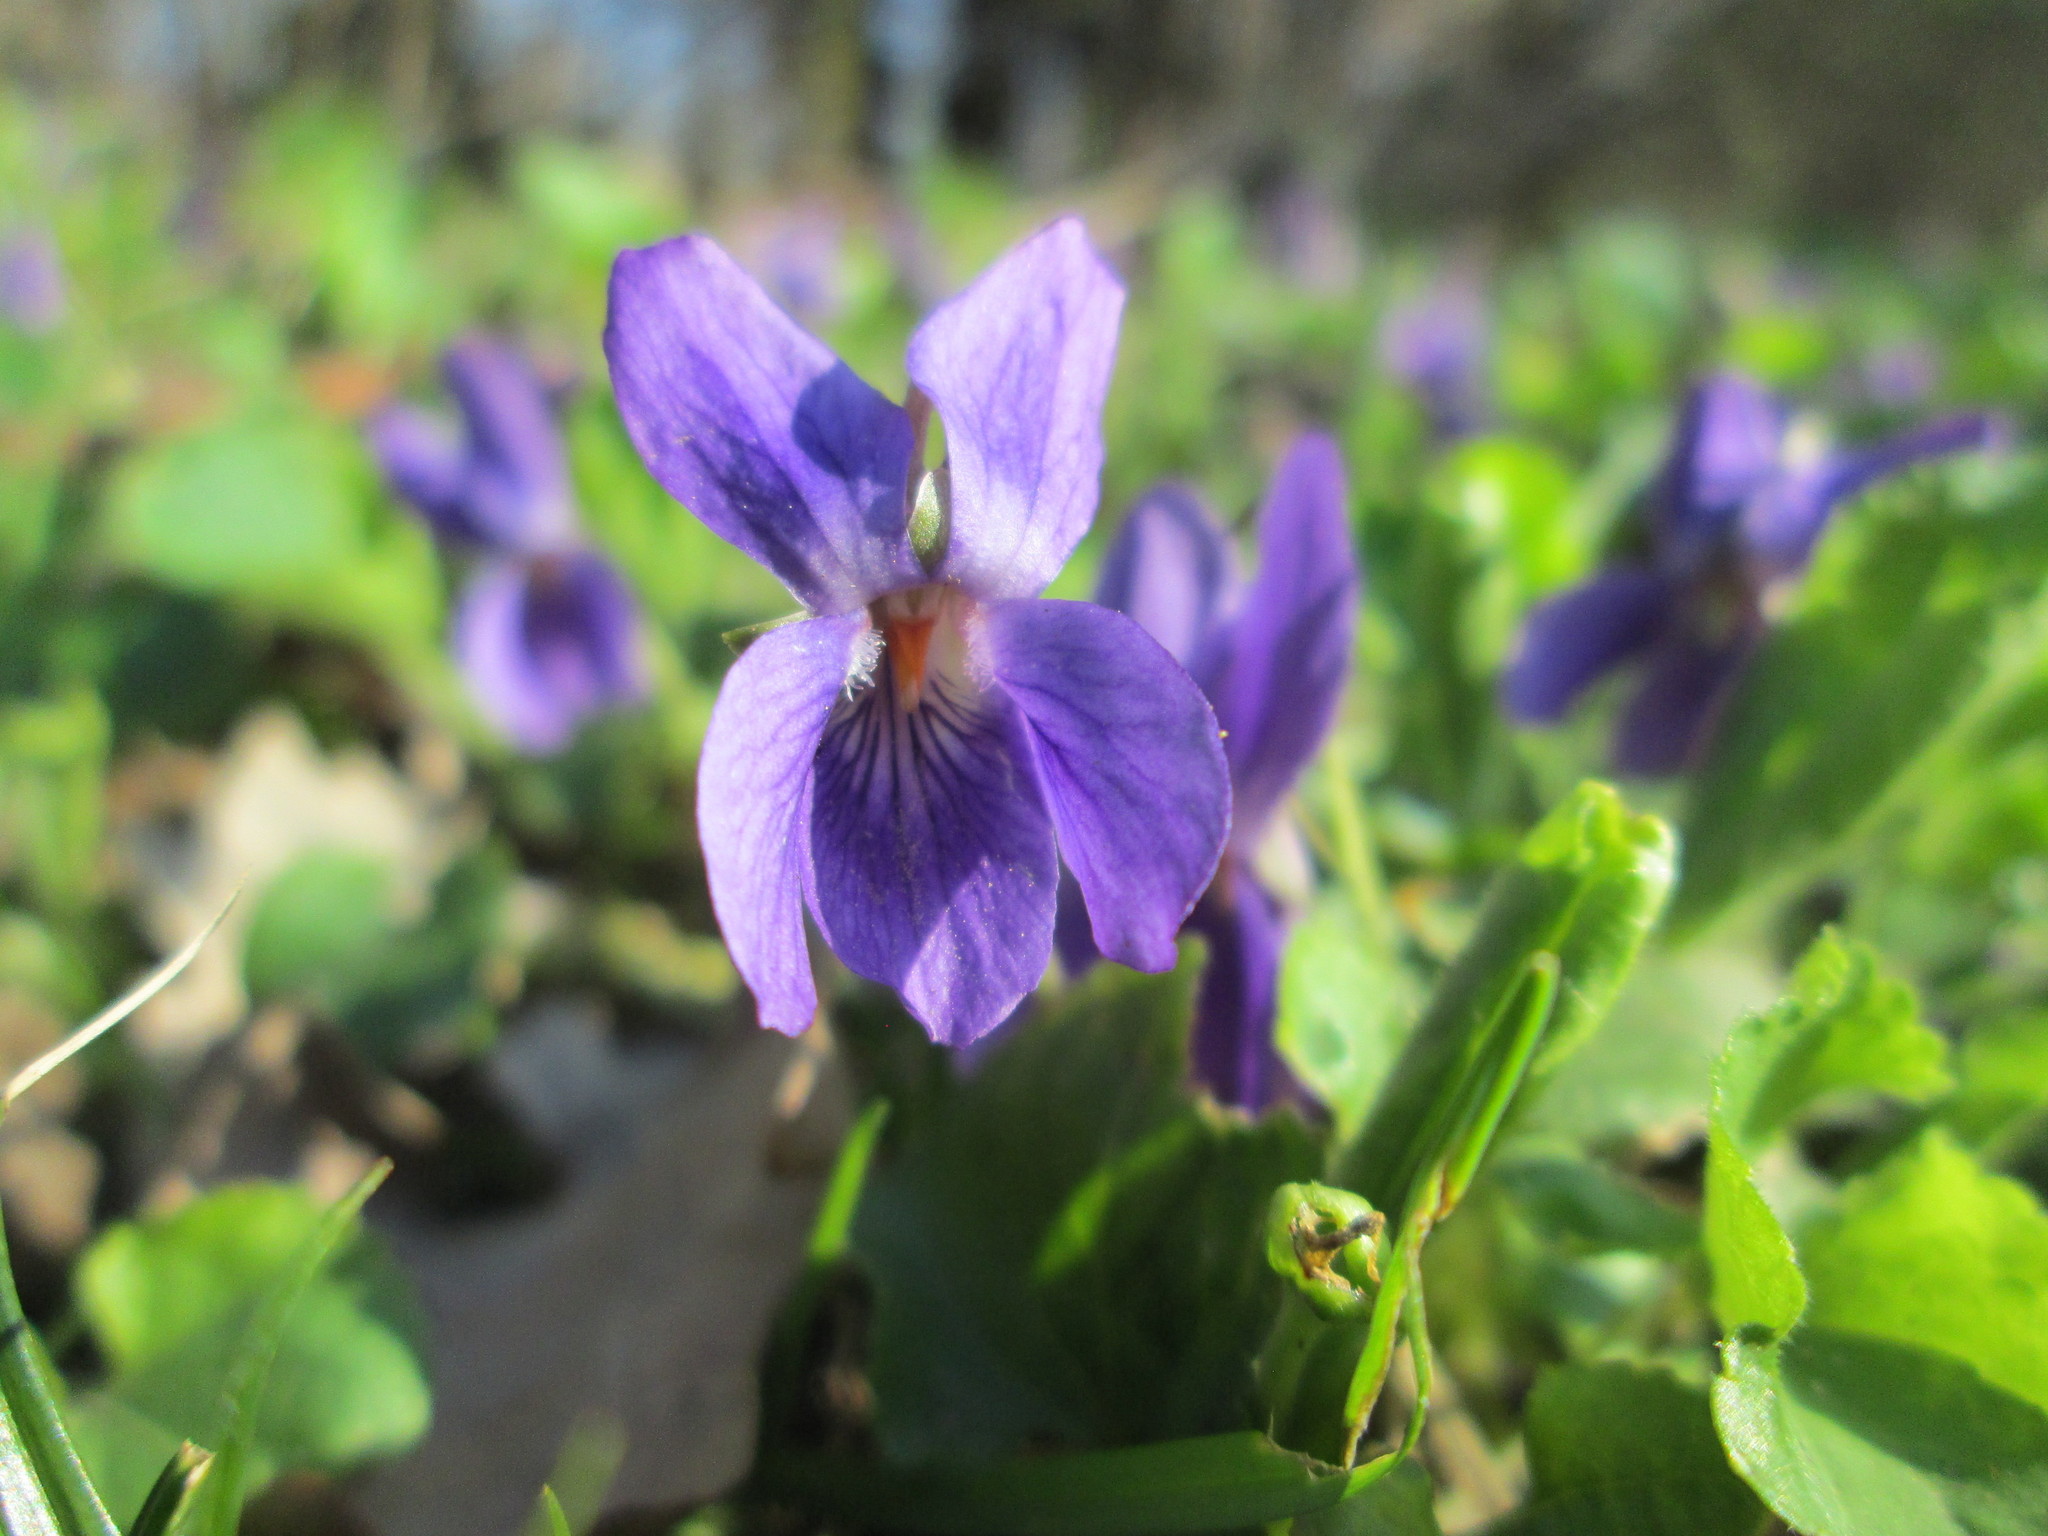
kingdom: Plantae
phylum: Tracheophyta
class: Magnoliopsida
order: Malpighiales
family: Violaceae
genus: Viola
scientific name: Viola odorata
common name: Sweet violet
